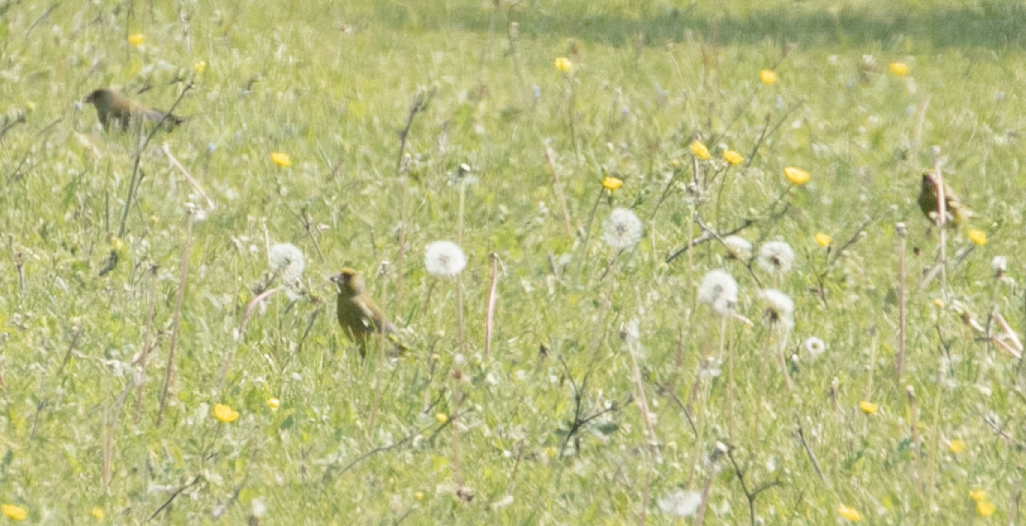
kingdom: Plantae
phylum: Tracheophyta
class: Liliopsida
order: Poales
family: Poaceae
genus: Chloris
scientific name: Chloris chloris
